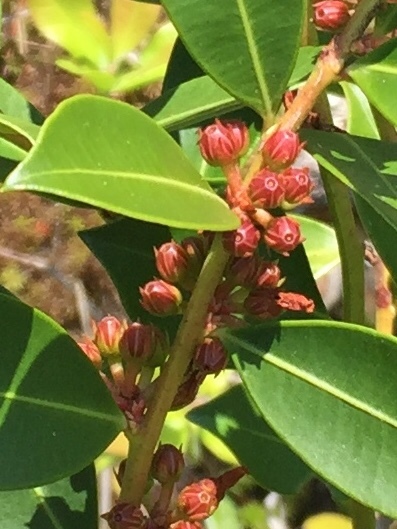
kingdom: Plantae
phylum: Tracheophyta
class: Magnoliopsida
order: Ericales
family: Ericaceae
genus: Lyonia
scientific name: Lyonia lucida
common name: Fetterbush
